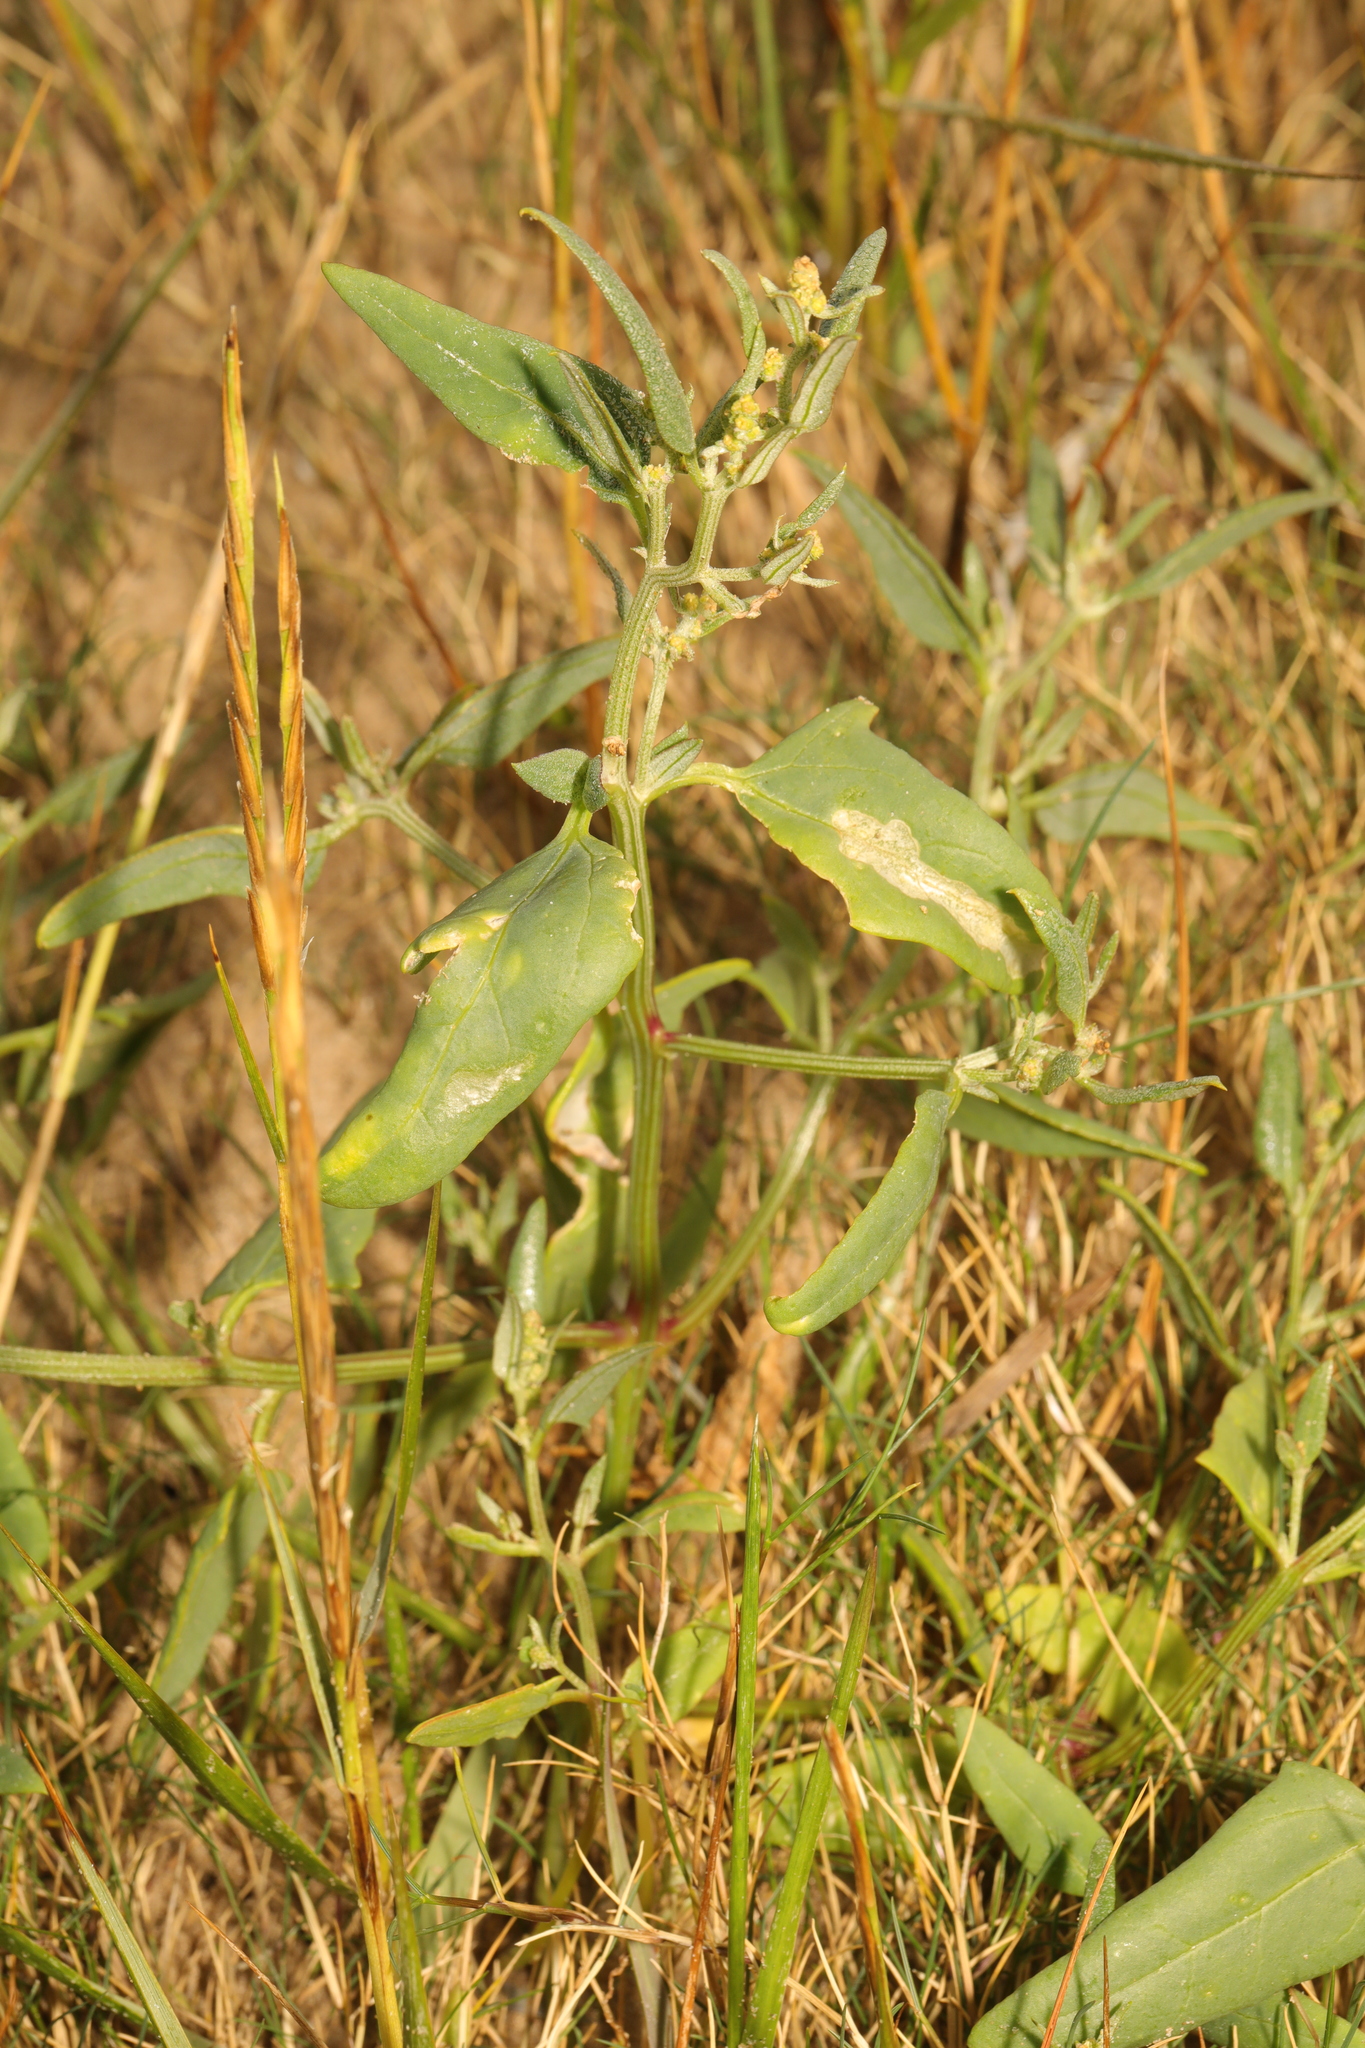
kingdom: Plantae
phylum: Tracheophyta
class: Magnoliopsida
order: Caryophyllales
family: Amaranthaceae
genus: Atriplex
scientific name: Atriplex patula
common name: Common orache
